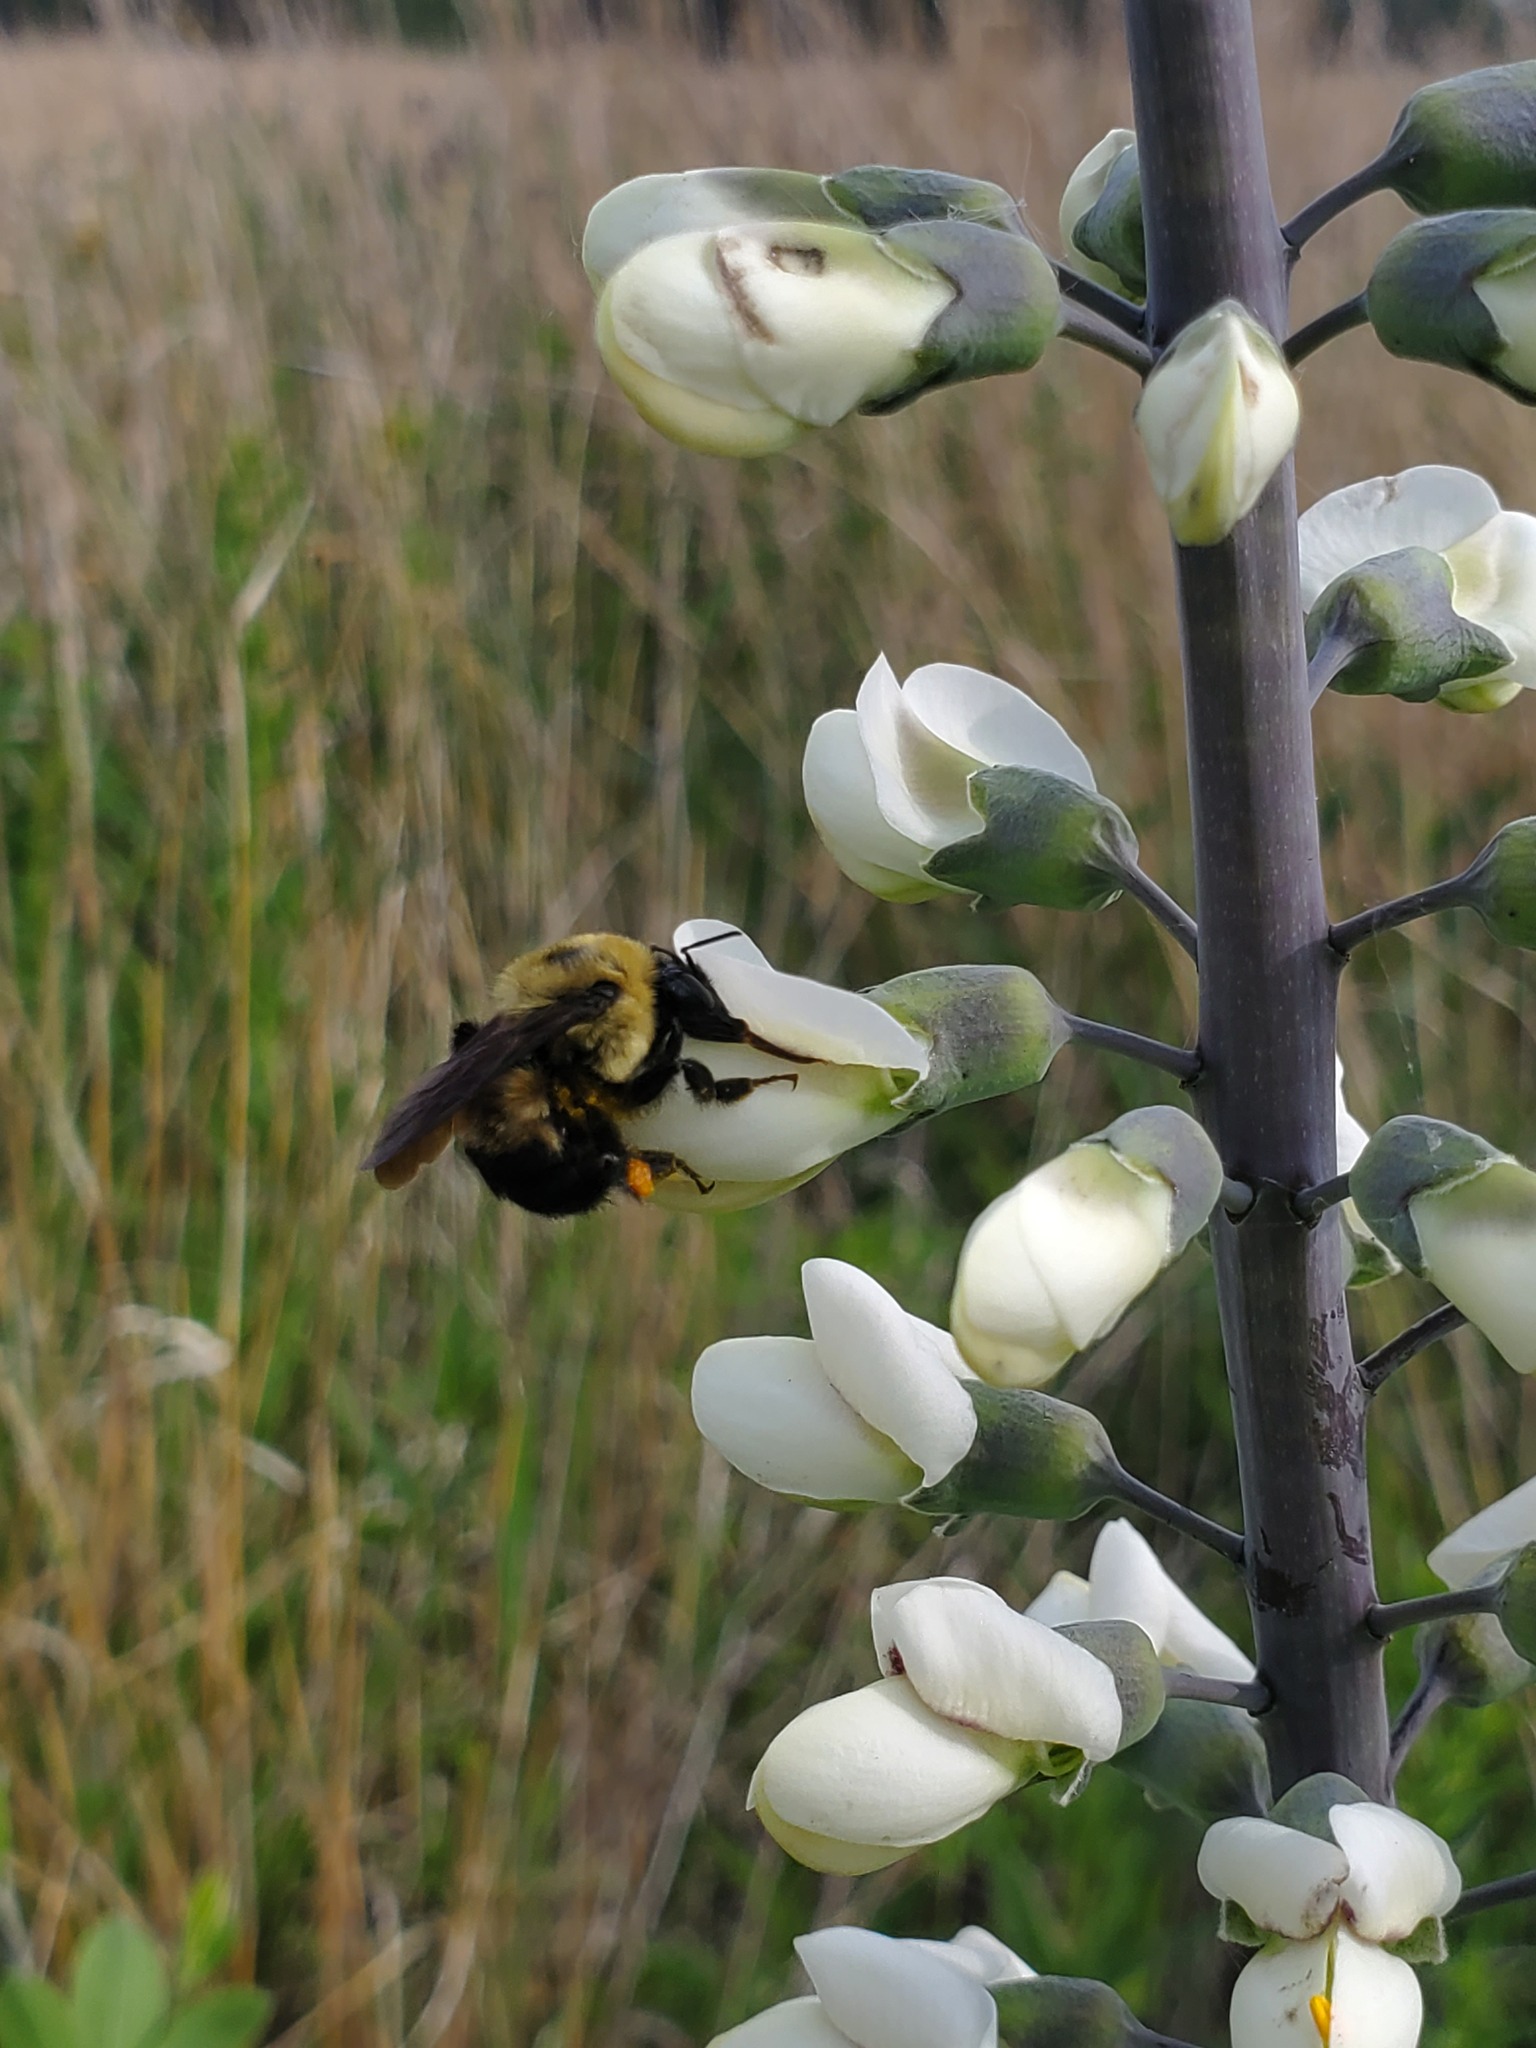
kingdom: Animalia
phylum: Arthropoda
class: Insecta
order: Hymenoptera
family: Apidae
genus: Bombus
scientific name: Bombus griseocollis
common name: Brown-belted bumble bee
